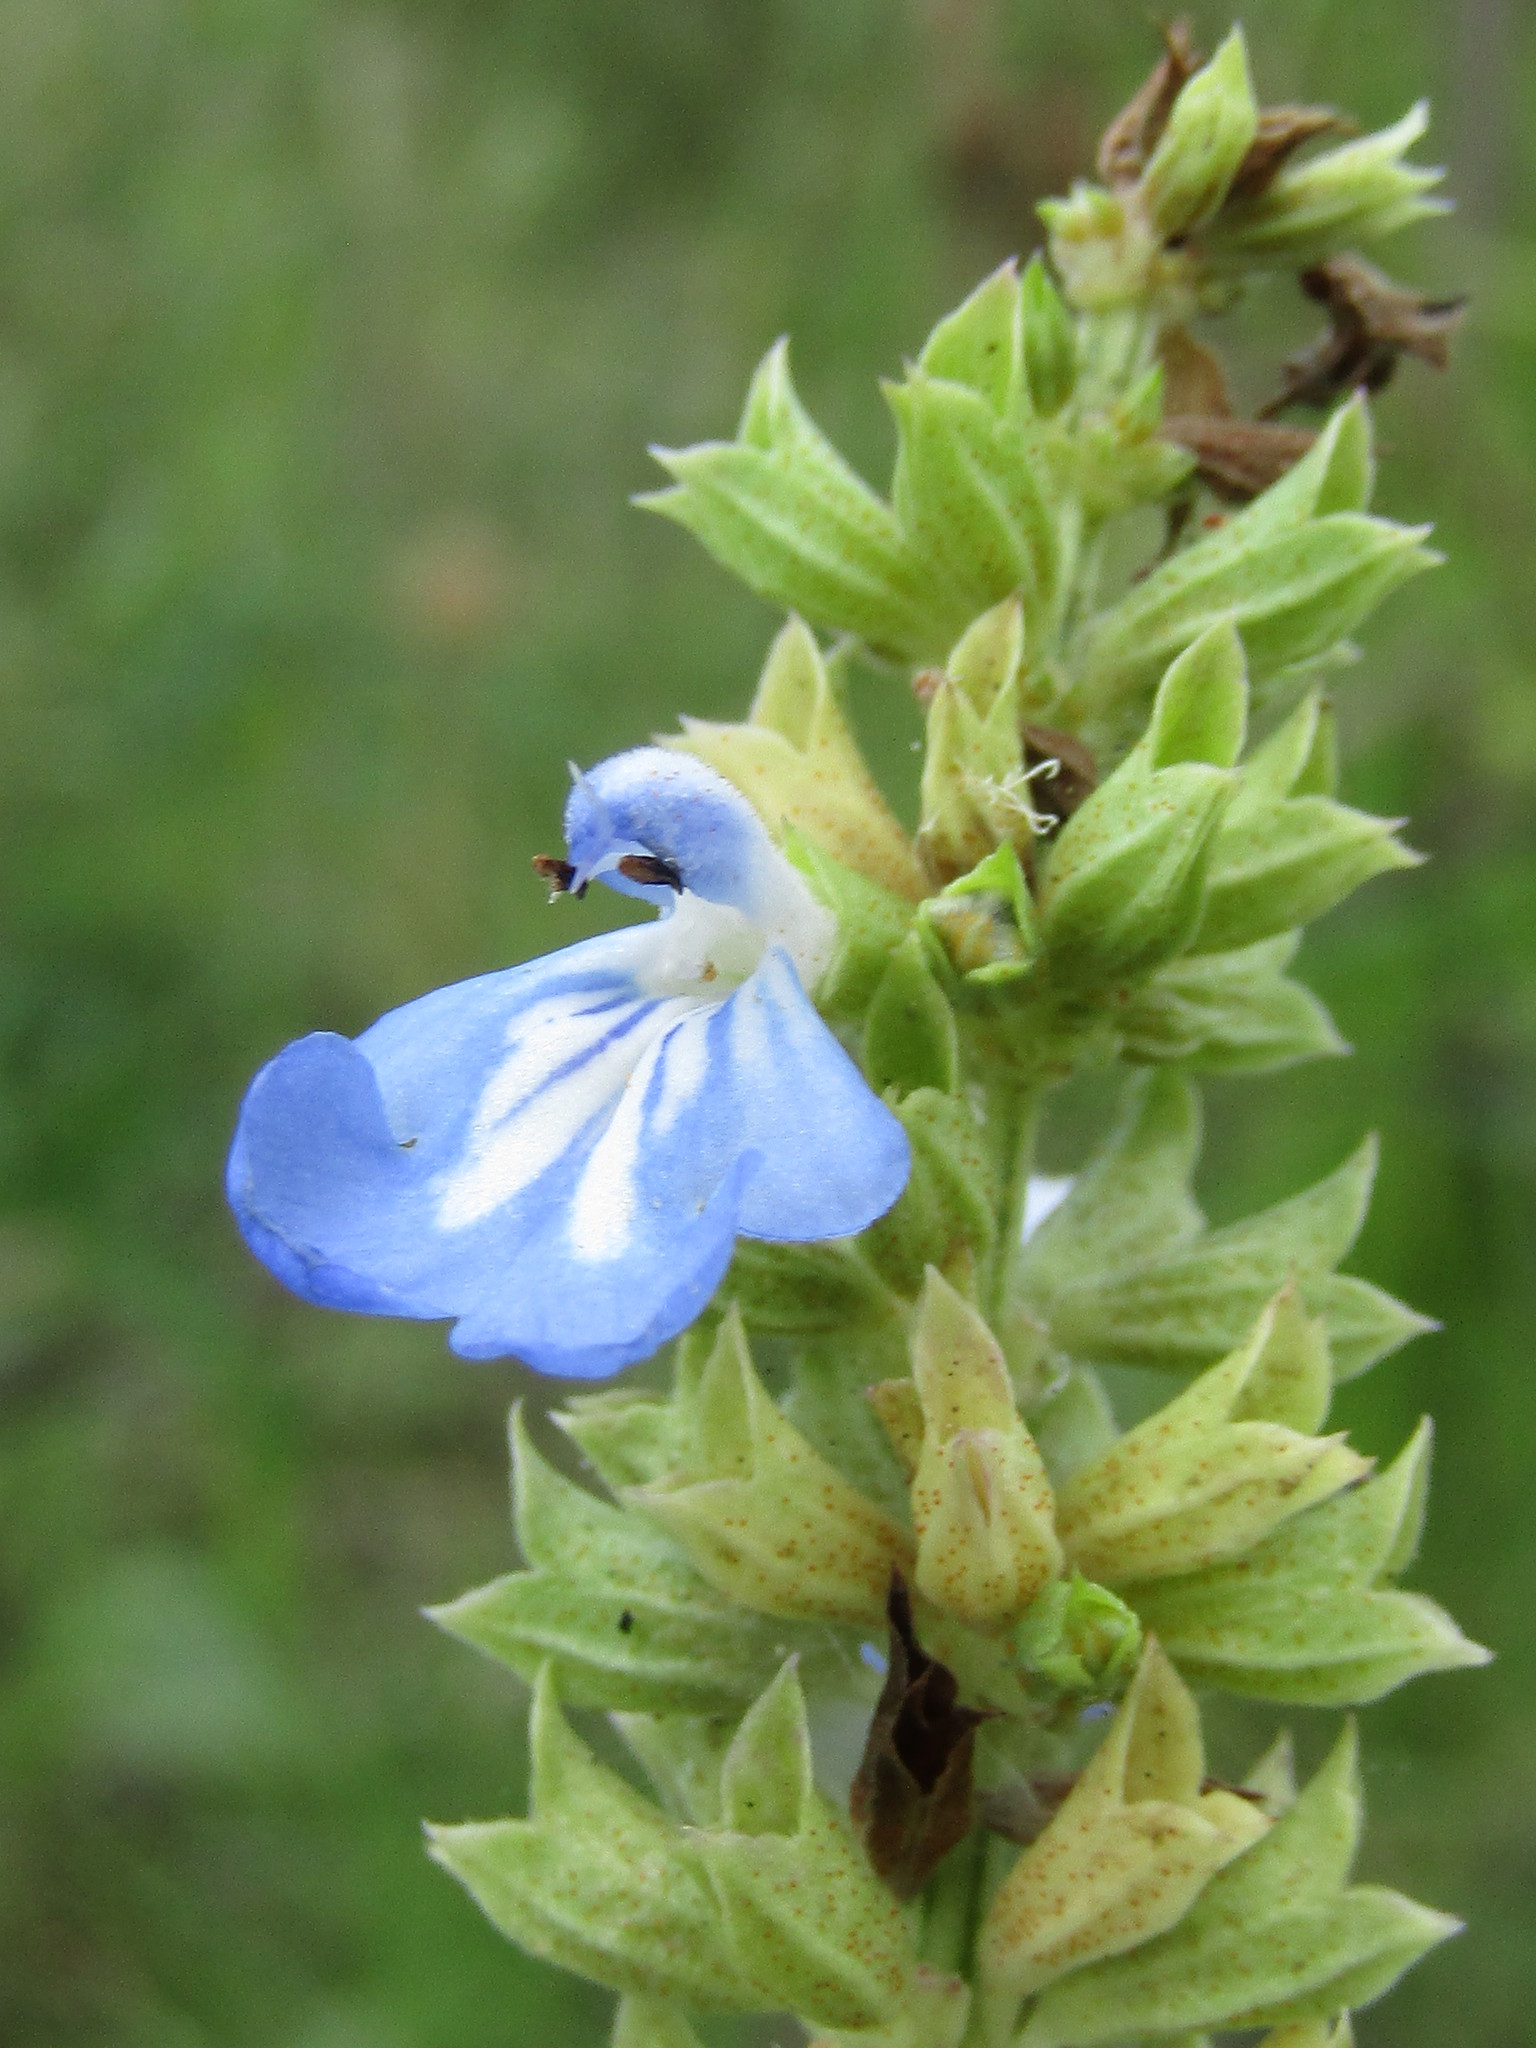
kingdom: Plantae
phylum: Tracheophyta
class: Magnoliopsida
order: Lamiales
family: Lamiaceae
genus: Salvia
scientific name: Salvia uliginosa
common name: Bog sage
